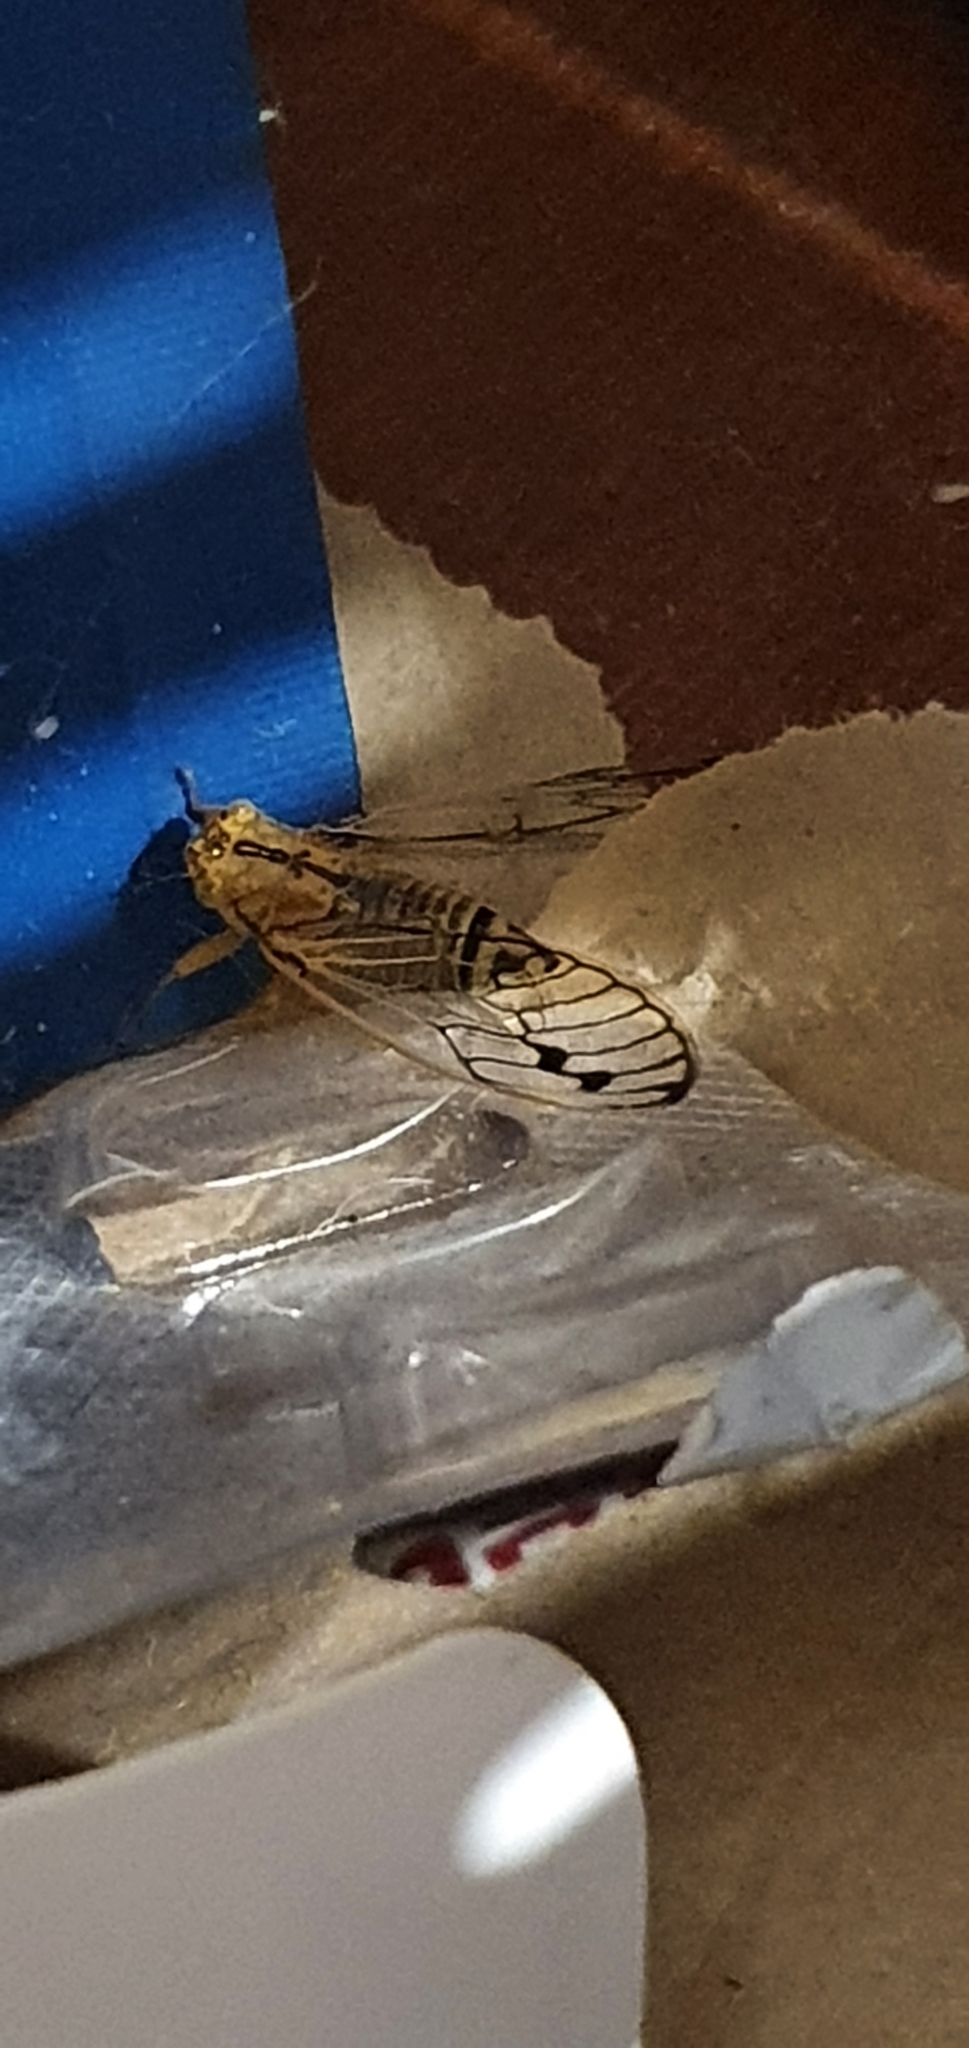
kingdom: Animalia
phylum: Arthropoda
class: Insecta
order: Hemiptera
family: Cicadidae
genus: Parnkalla
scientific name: Parnkalla muelleri
